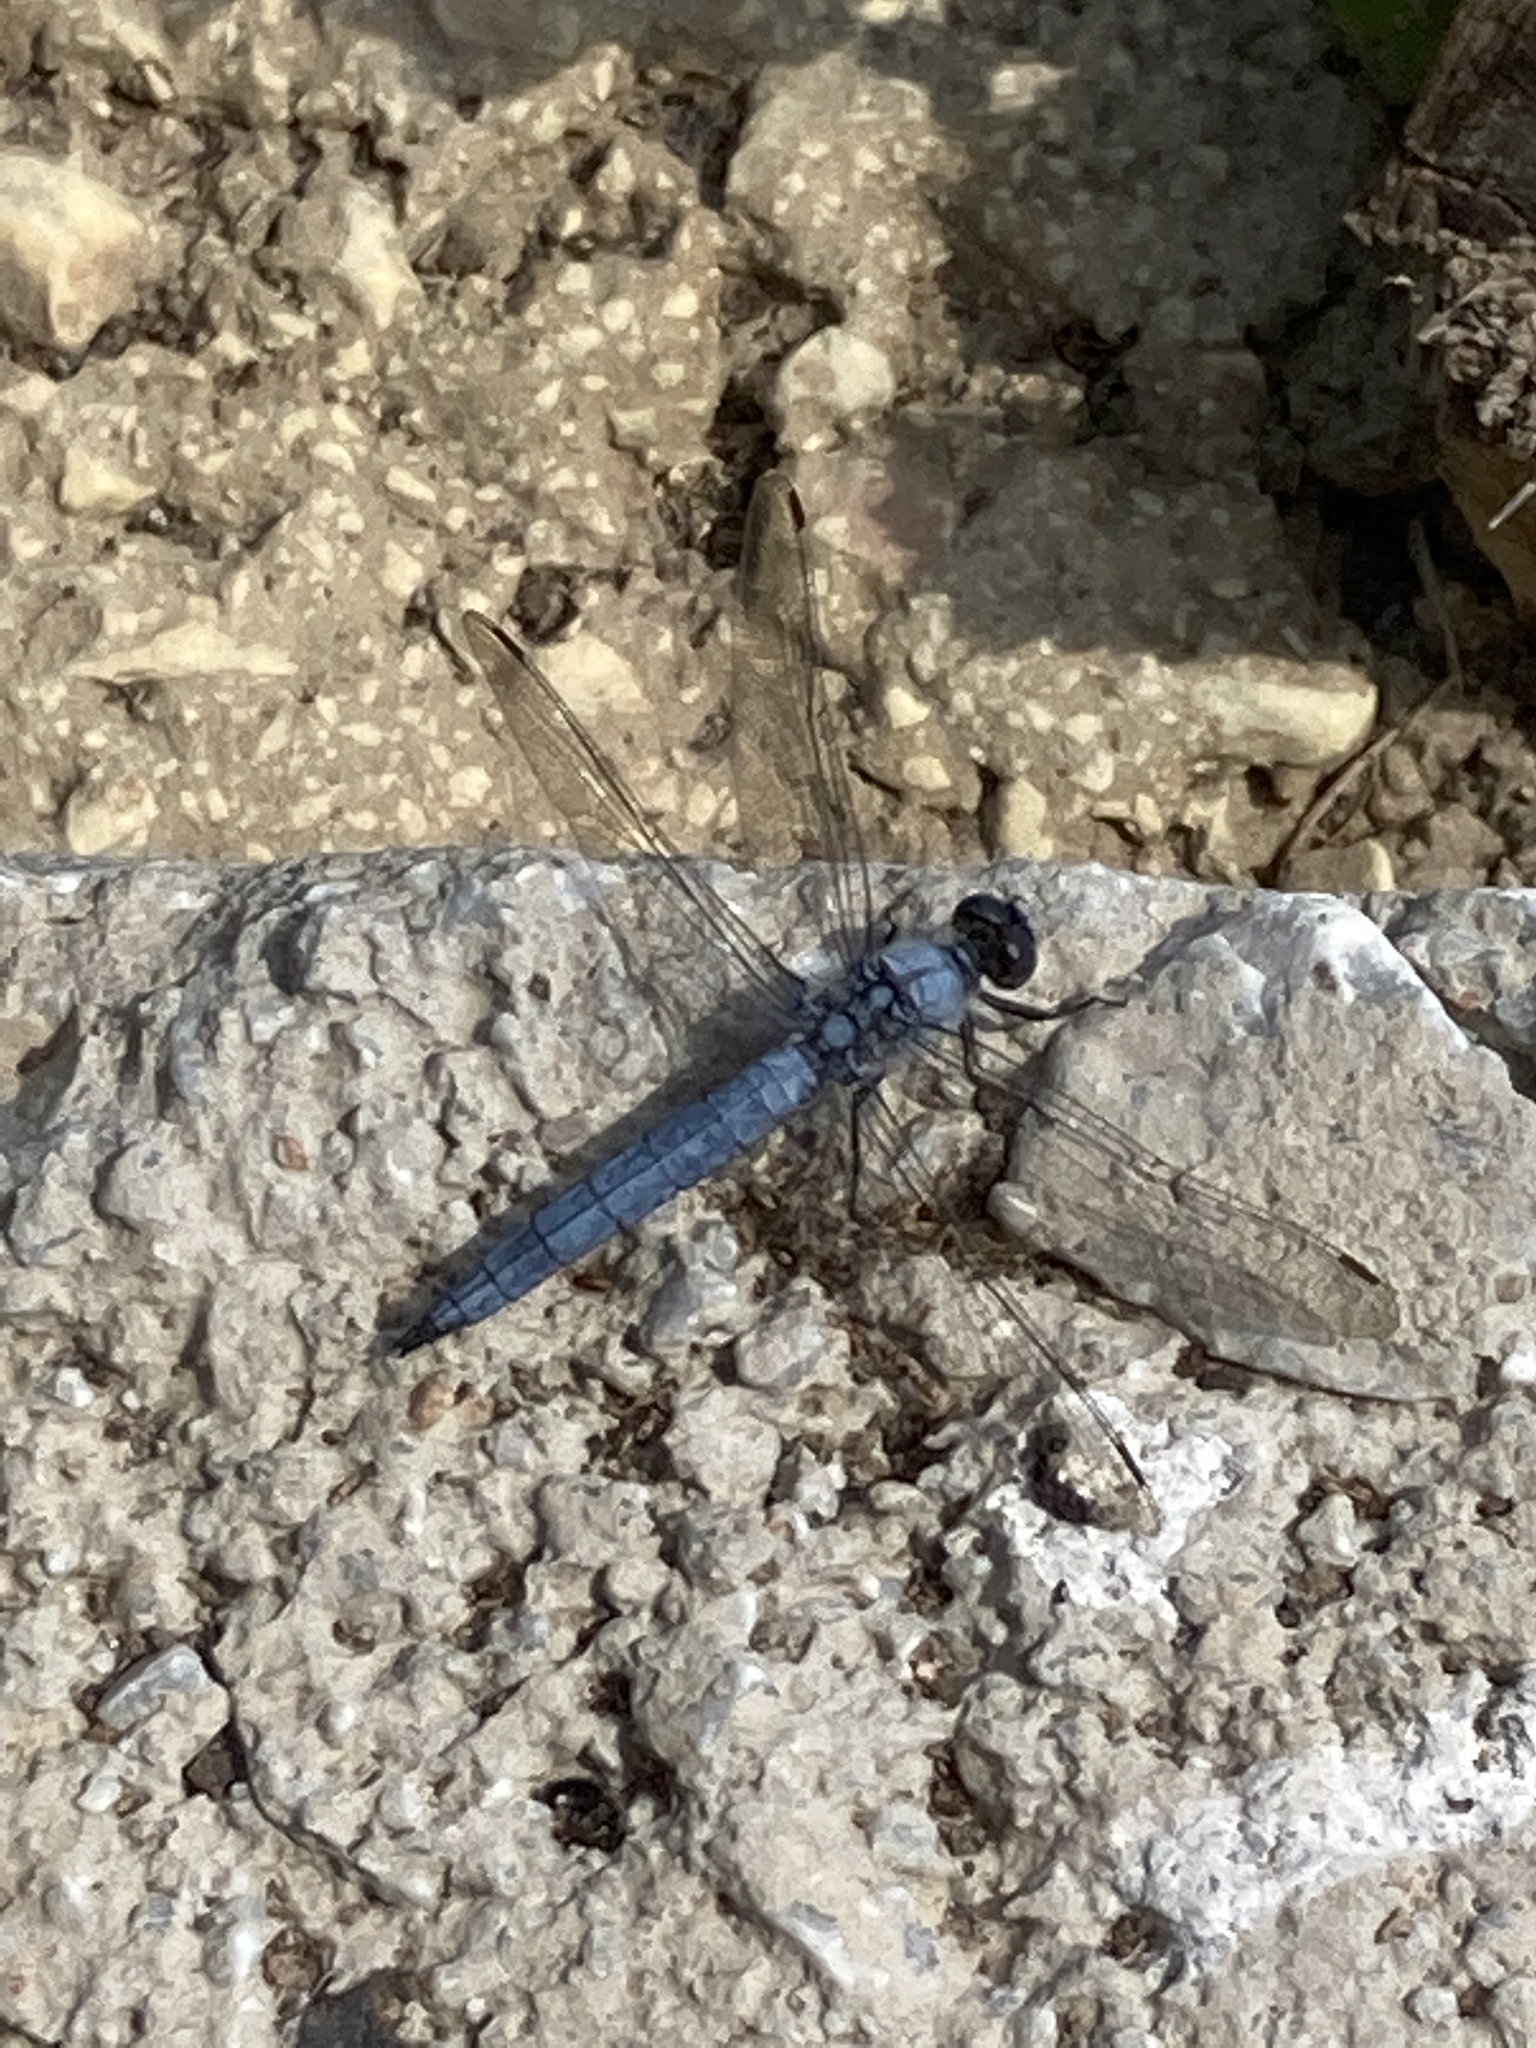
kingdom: Animalia
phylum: Arthropoda
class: Insecta
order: Odonata
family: Libellulidae
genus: Orthetrum
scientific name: Orthetrum brunneum
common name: Southern skimmer
